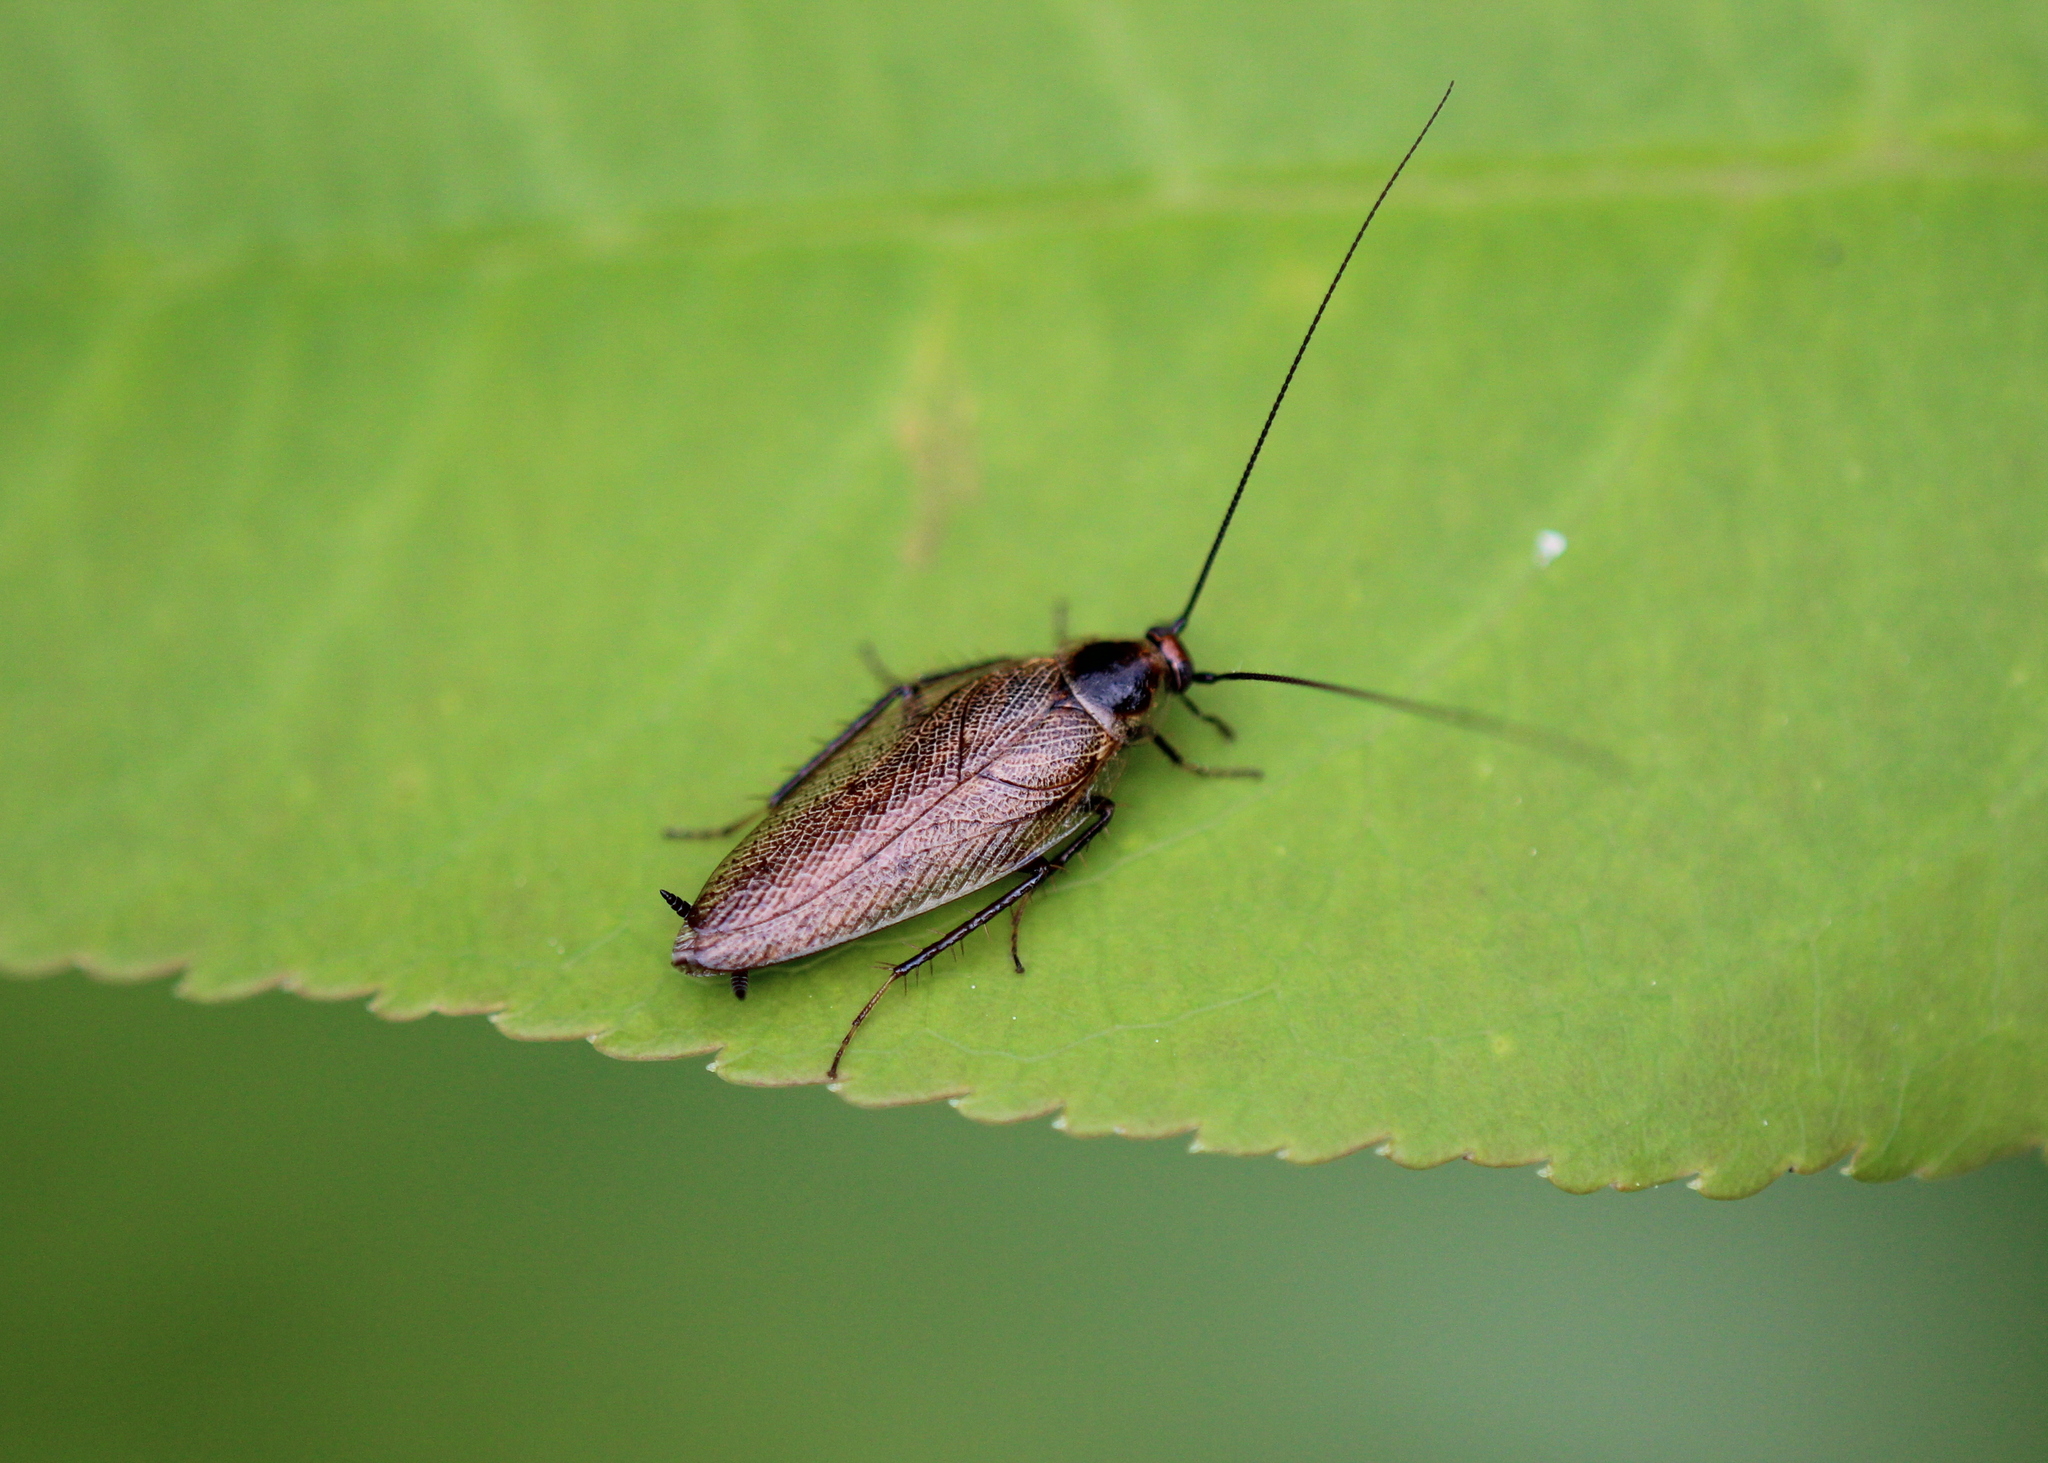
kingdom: Animalia
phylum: Arthropoda
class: Insecta
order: Blattodea
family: Ectobiidae
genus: Ectobius
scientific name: Ectobius lapponicus
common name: Dusky cockroach
